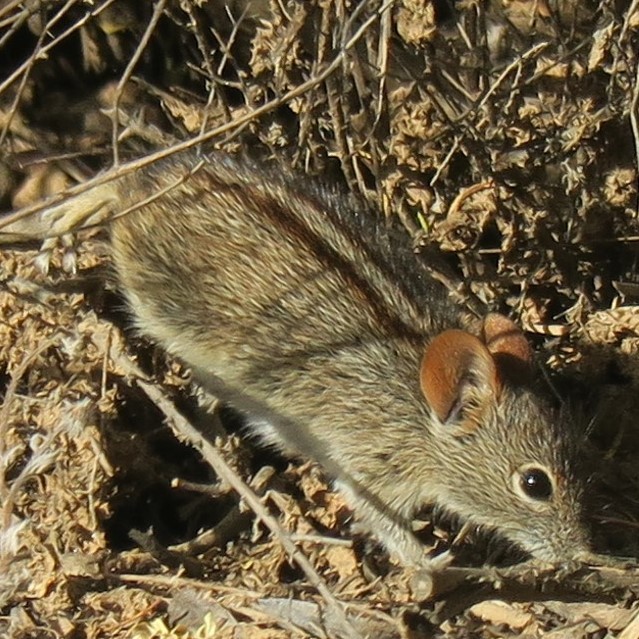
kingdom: Animalia
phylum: Chordata
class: Mammalia
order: Rodentia
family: Muridae
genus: Rhabdomys
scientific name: Rhabdomys pumilio
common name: Xeric four-striped grass rat
